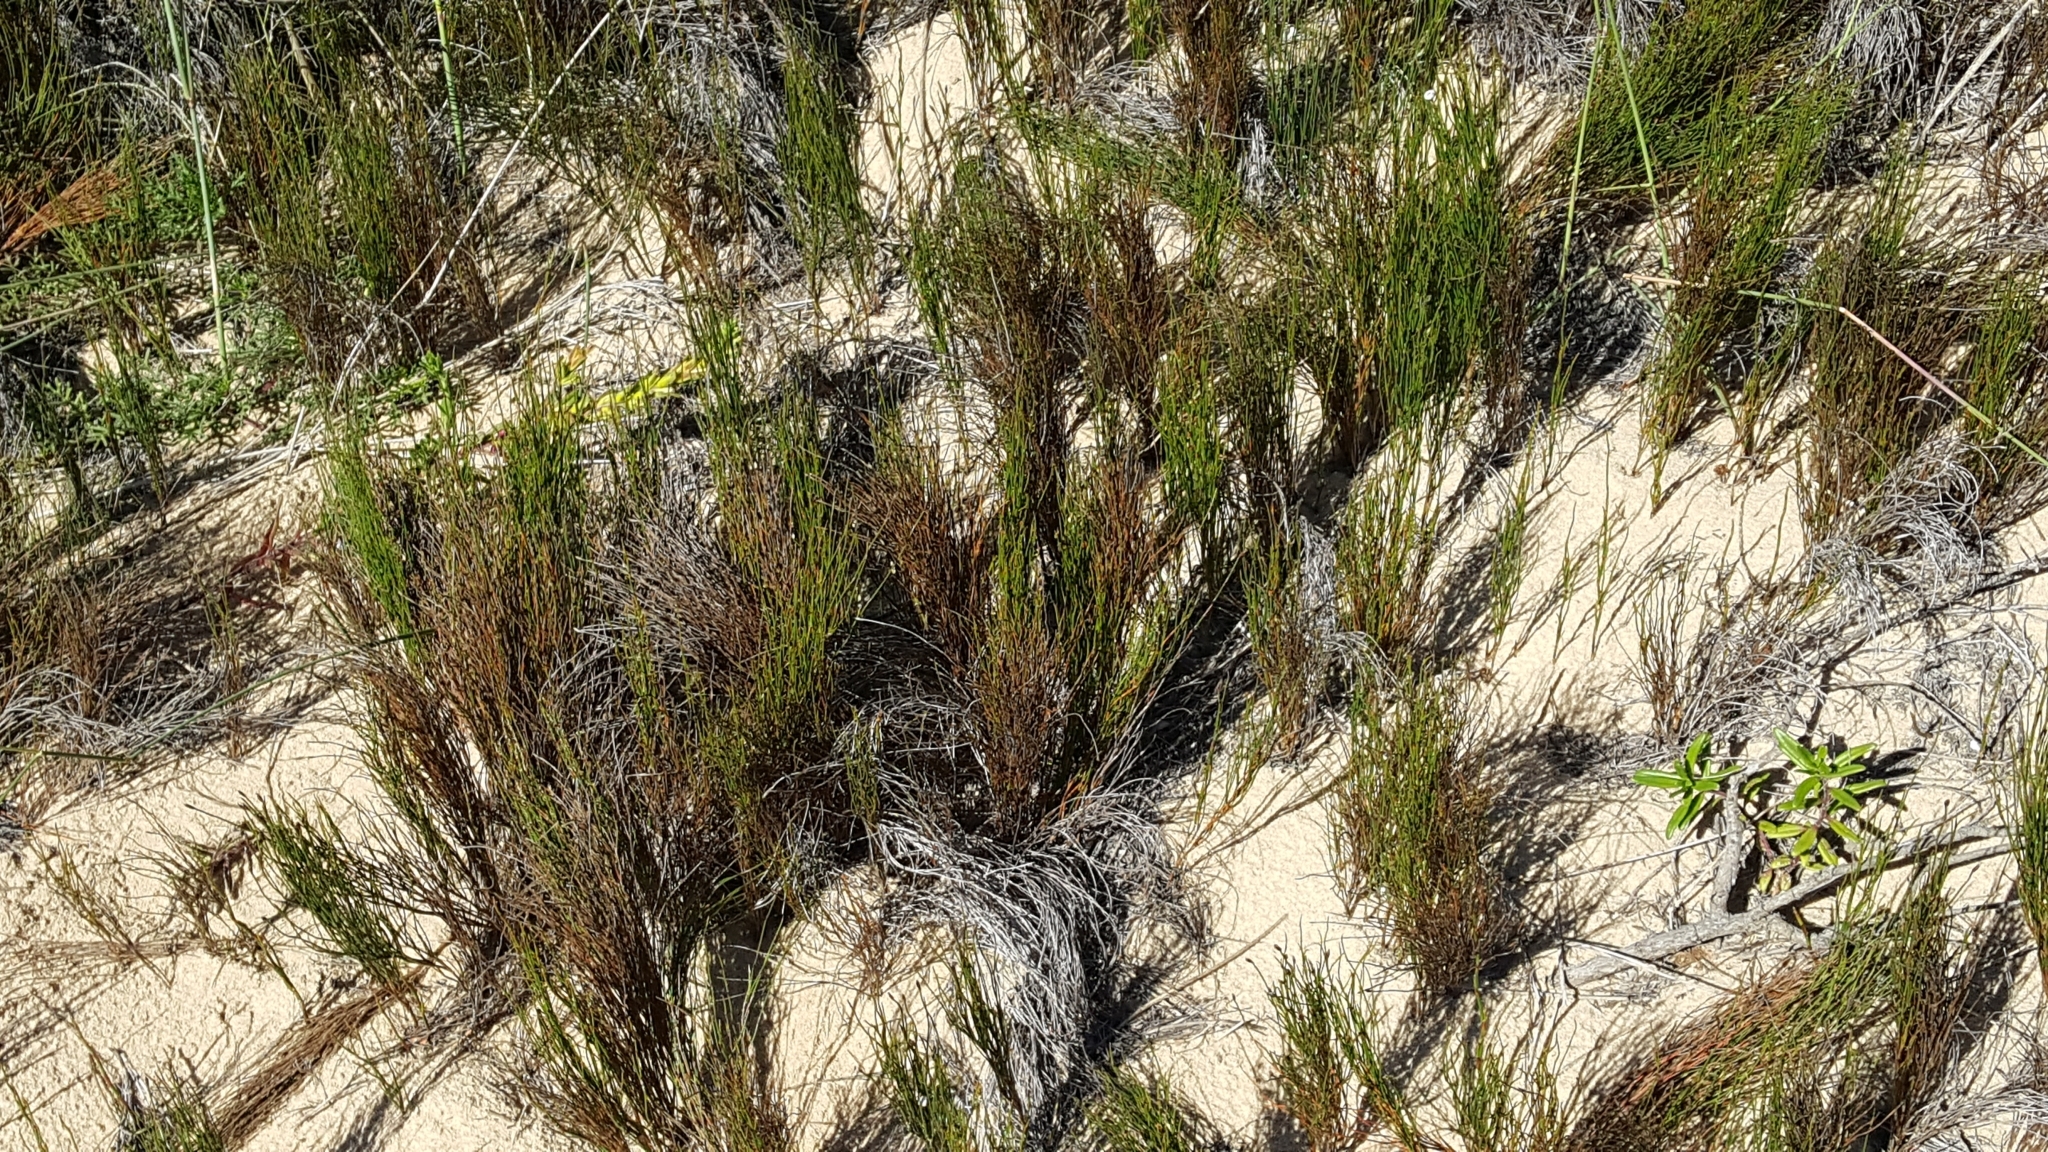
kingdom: Plantae
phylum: Tracheophyta
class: Liliopsida
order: Poales
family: Restionaceae
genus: Restio
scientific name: Restio eleocharis
